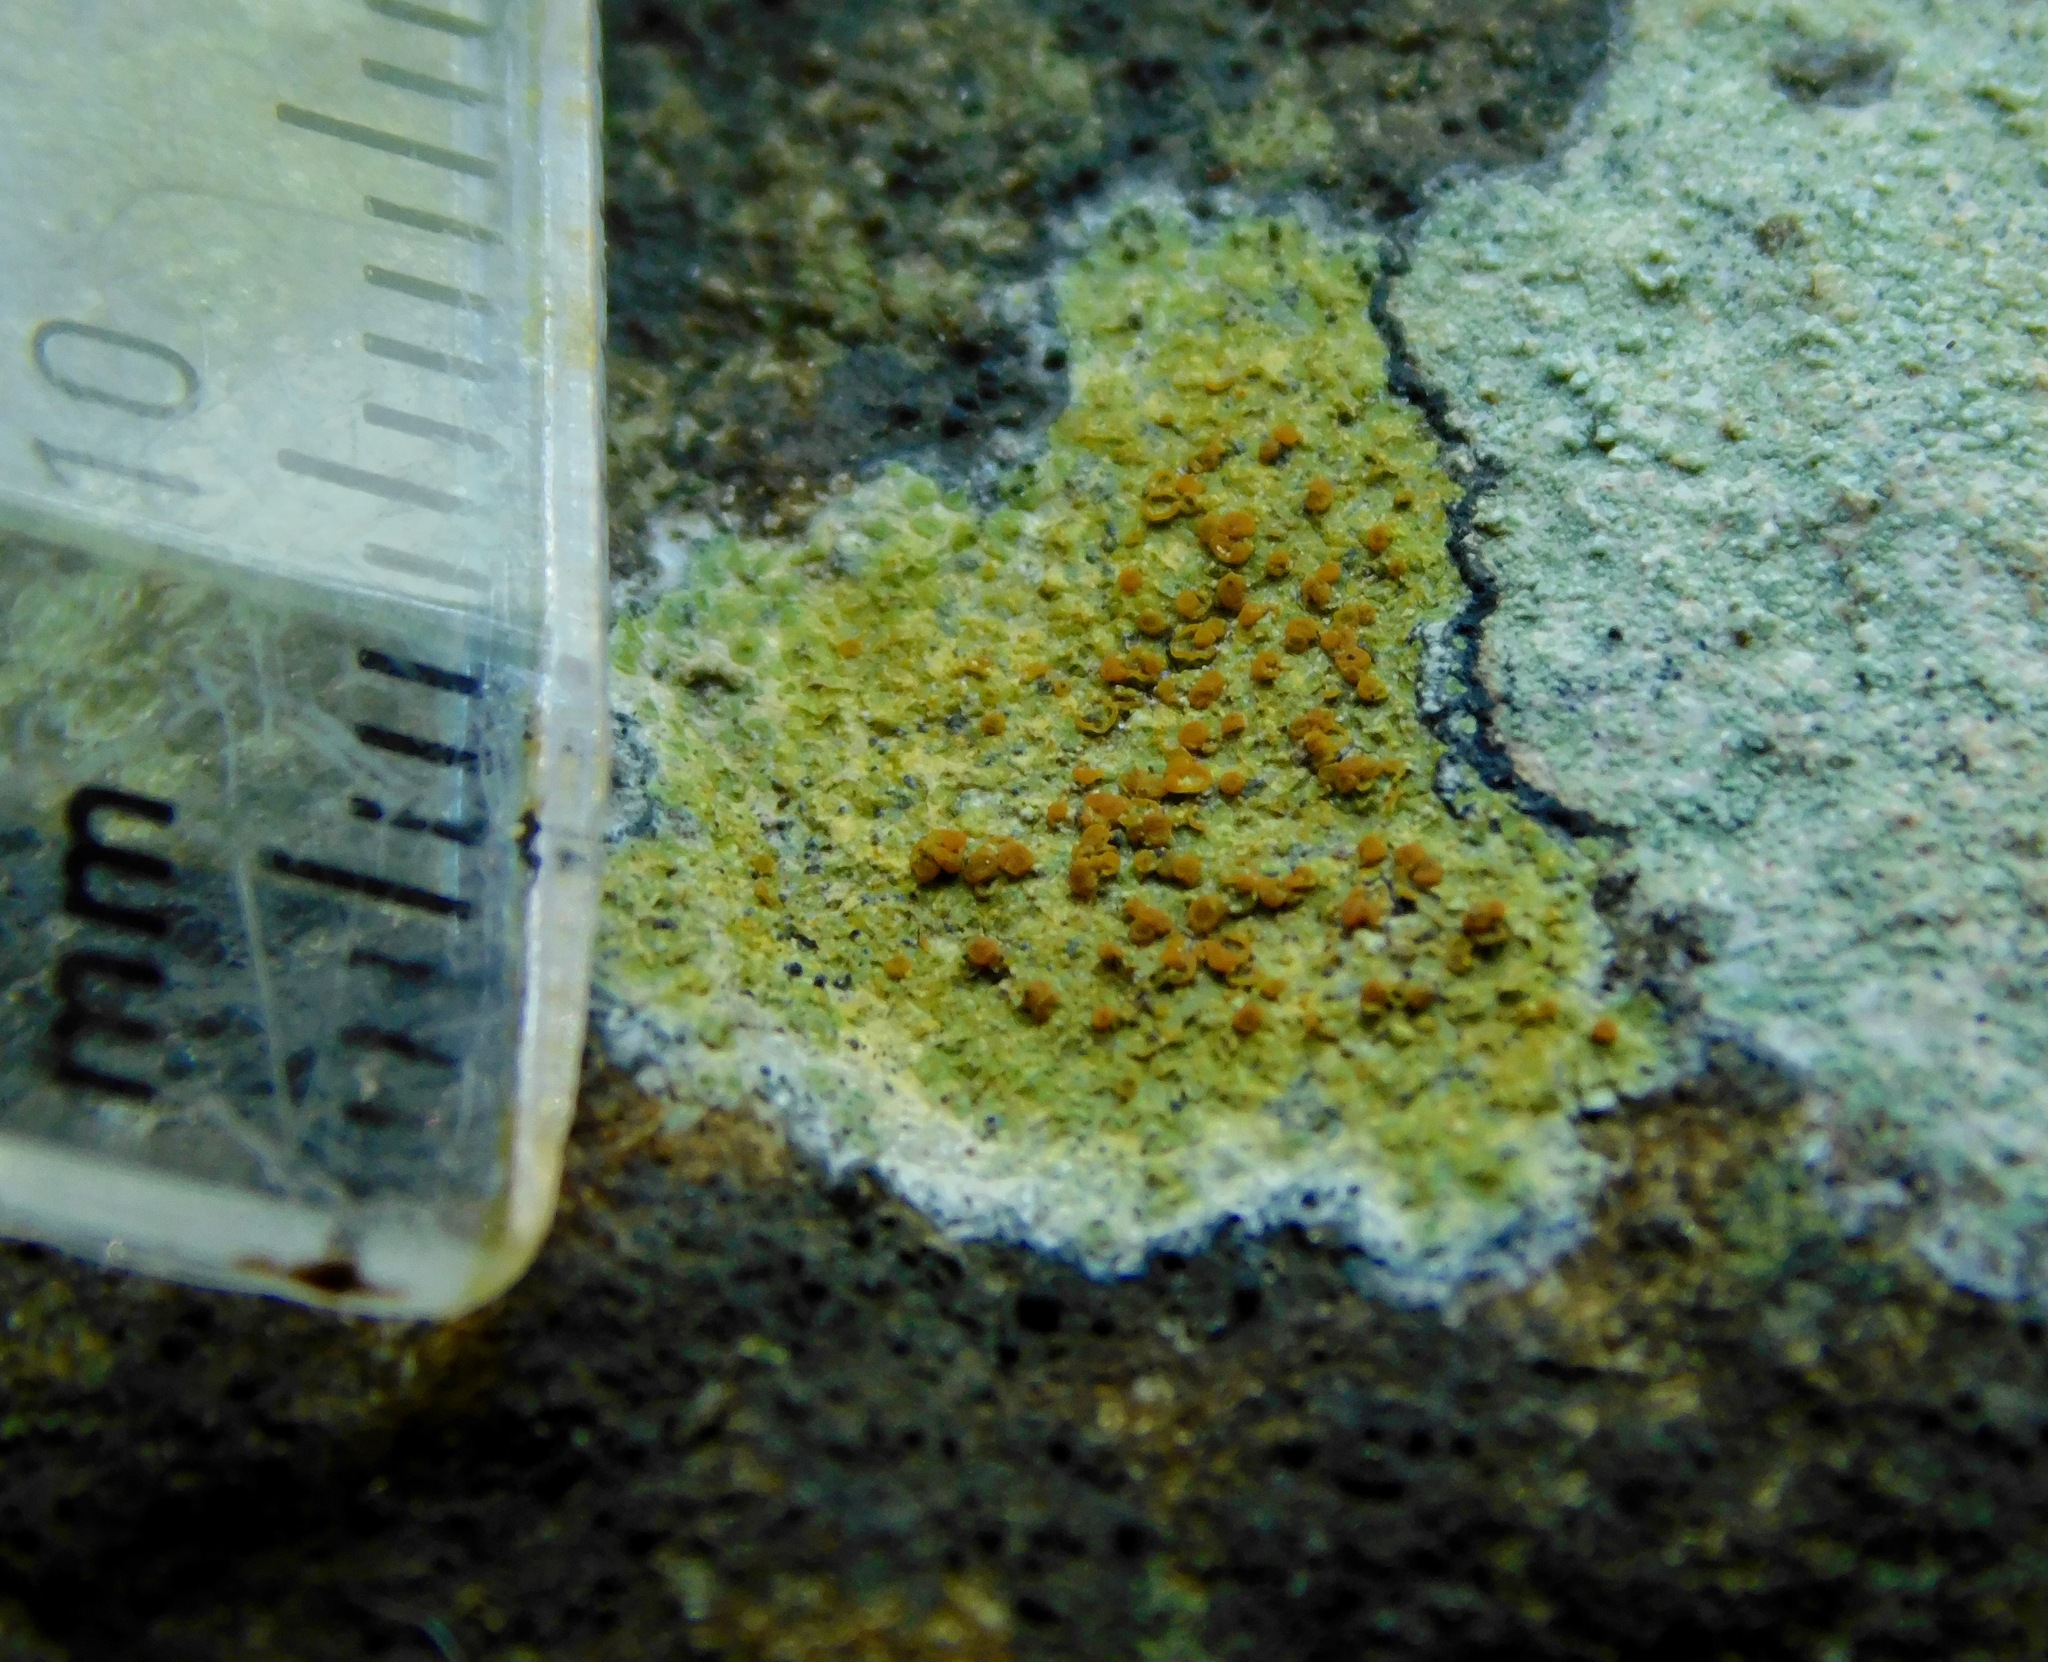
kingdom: Fungi
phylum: Ascomycota
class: Lecanoromycetes
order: Teloschistales
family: Teloschistaceae
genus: Gyalolechia
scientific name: Gyalolechia flavovirescens
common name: Sulphur firedot
